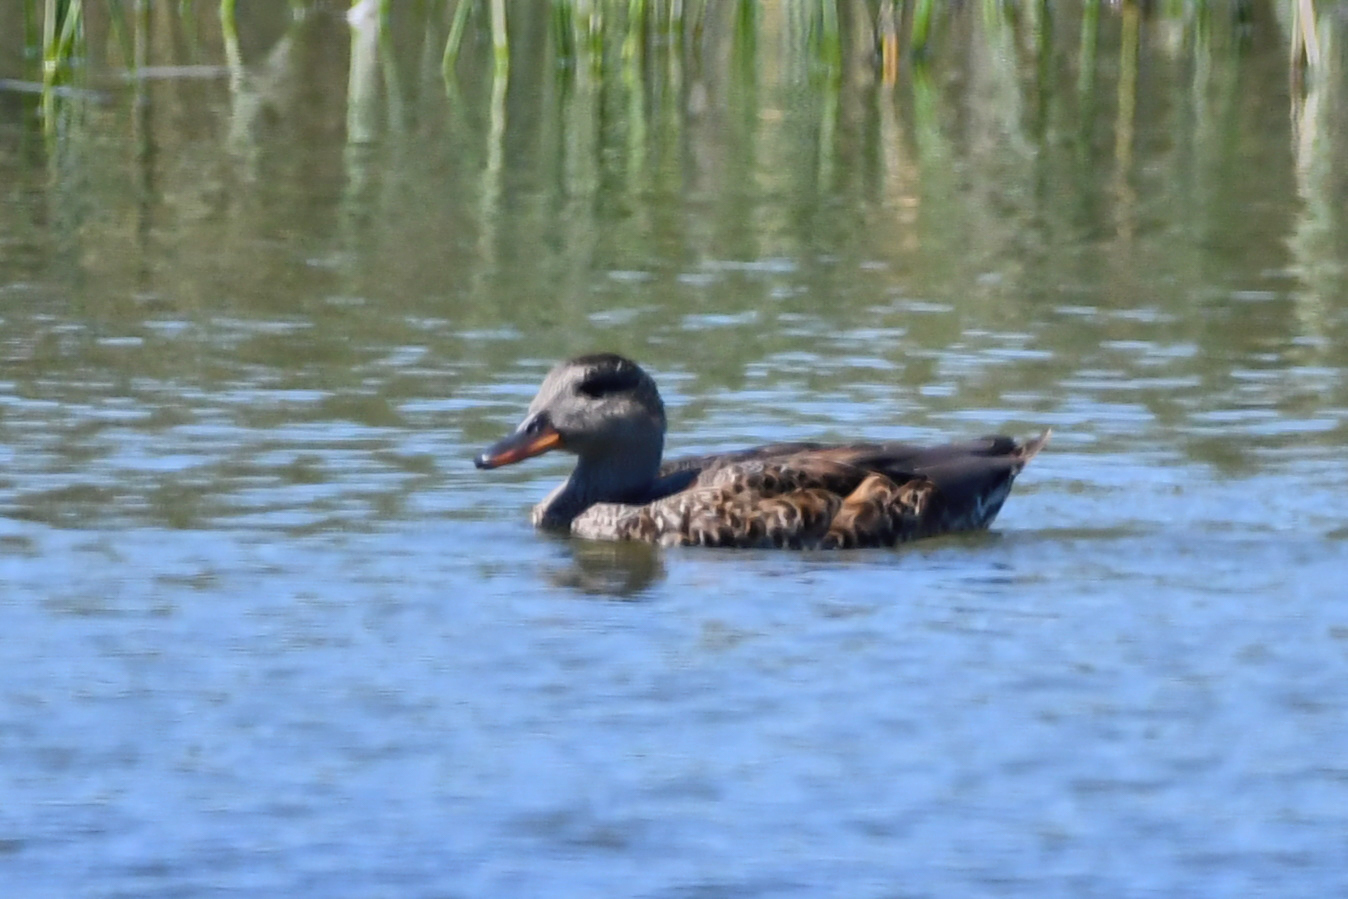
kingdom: Animalia
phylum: Chordata
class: Aves
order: Anseriformes
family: Anatidae
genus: Mareca
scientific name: Mareca strepera
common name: Gadwall
